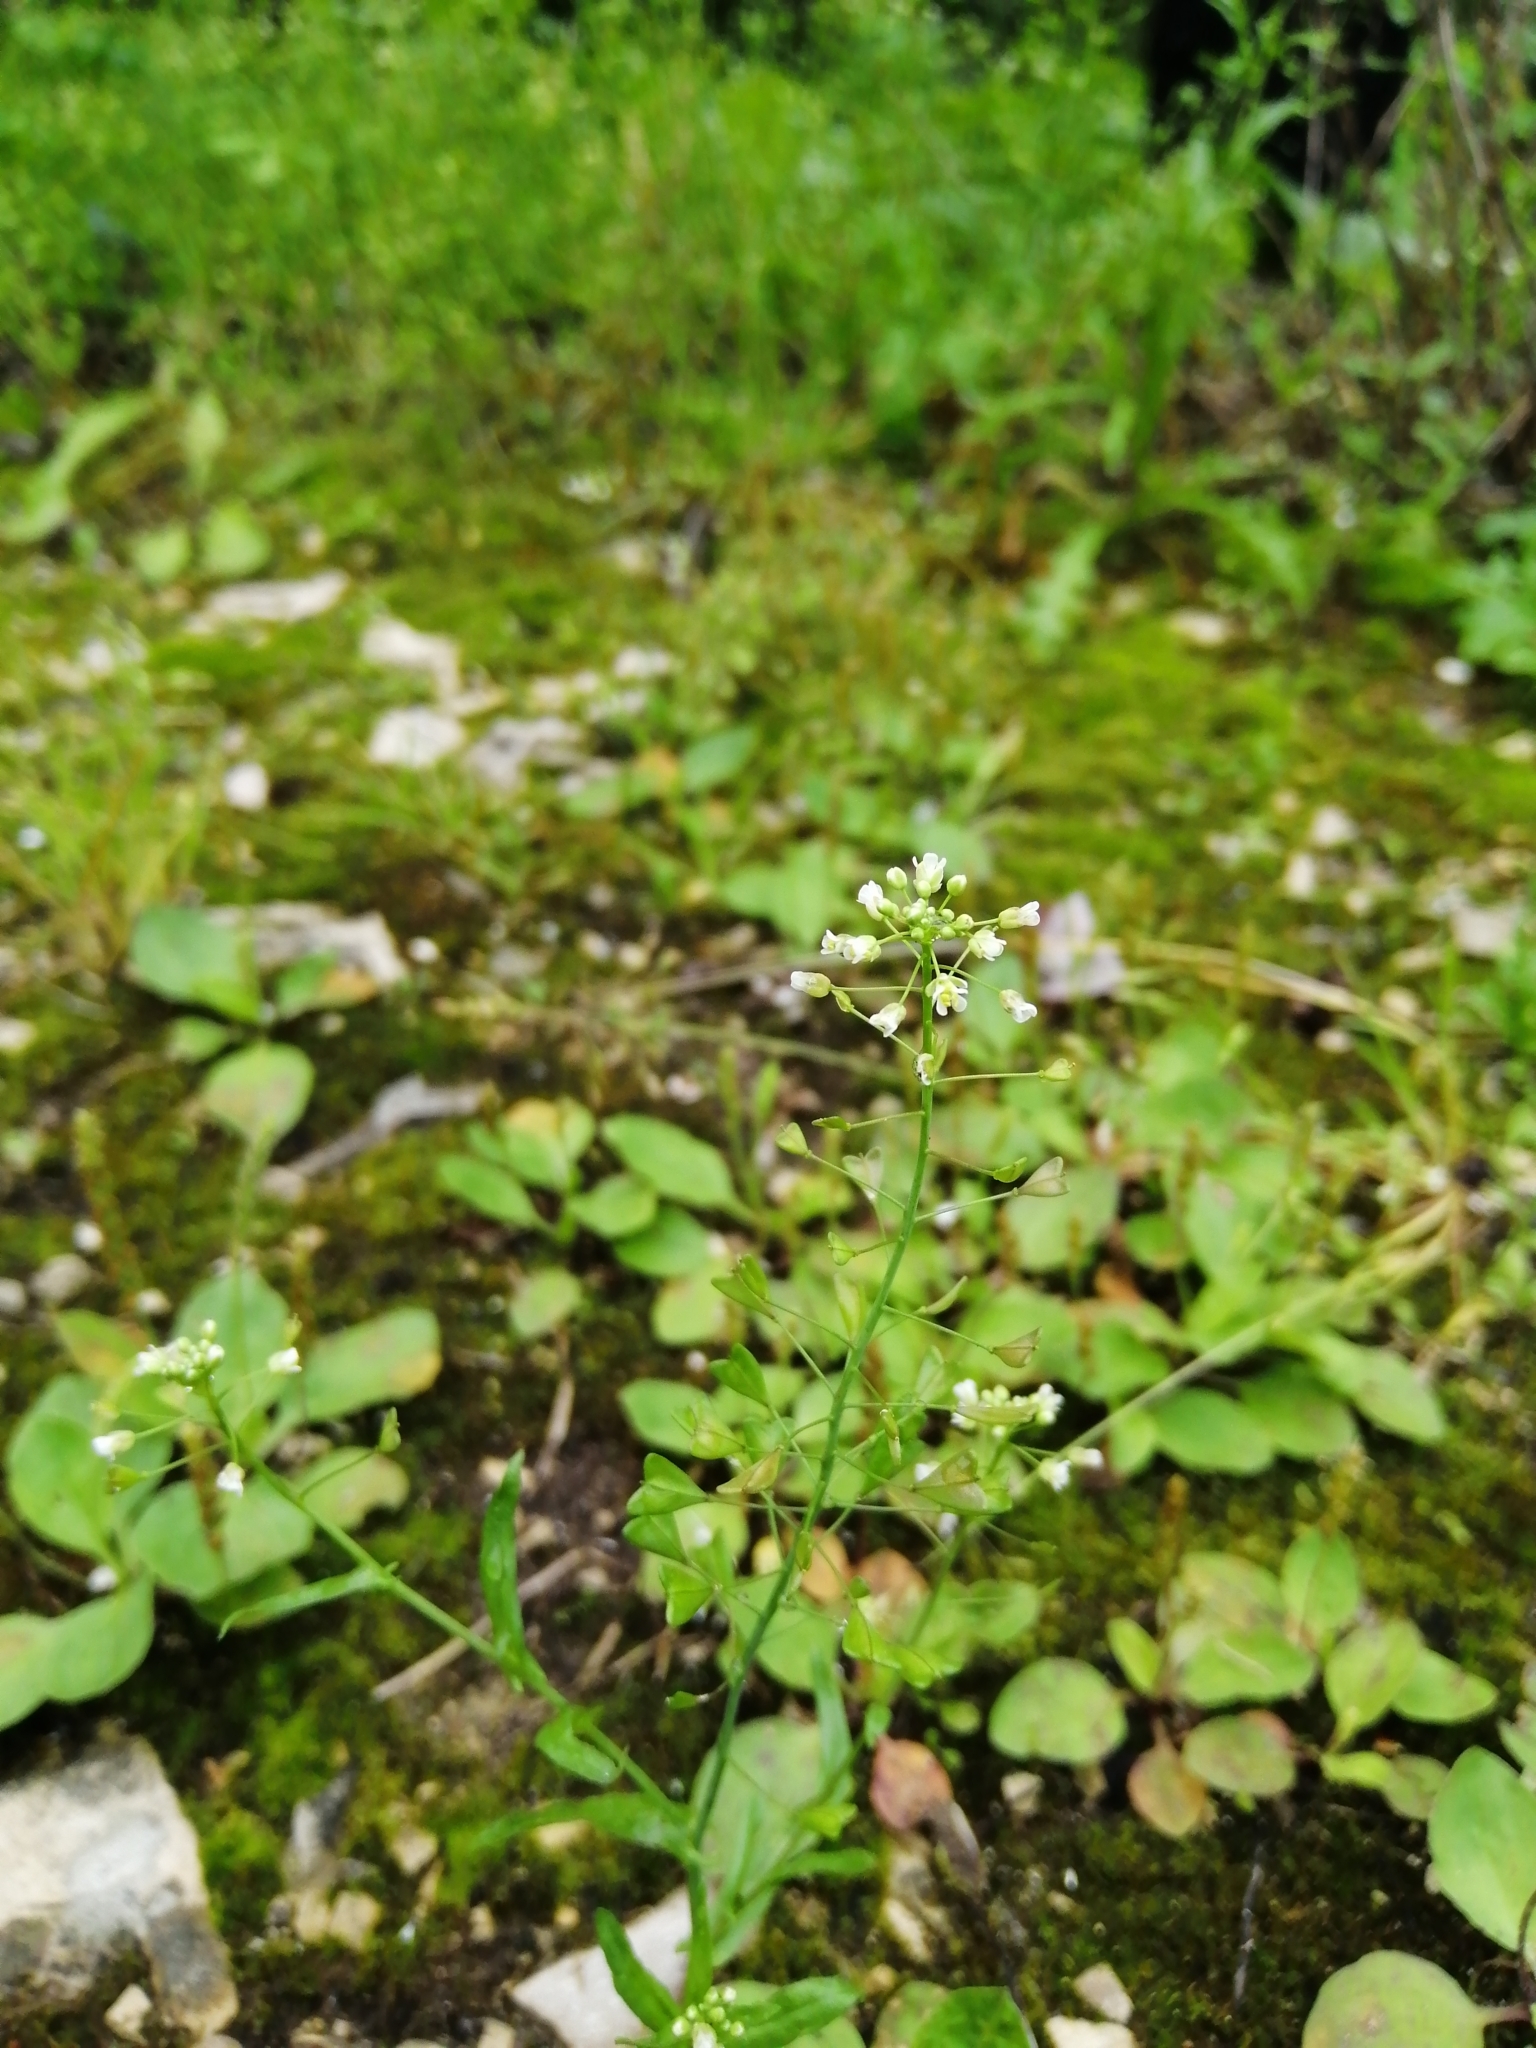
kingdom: Plantae
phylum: Tracheophyta
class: Magnoliopsida
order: Brassicales
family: Brassicaceae
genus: Capsella
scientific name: Capsella bursa-pastoris
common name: Shepherd's purse
